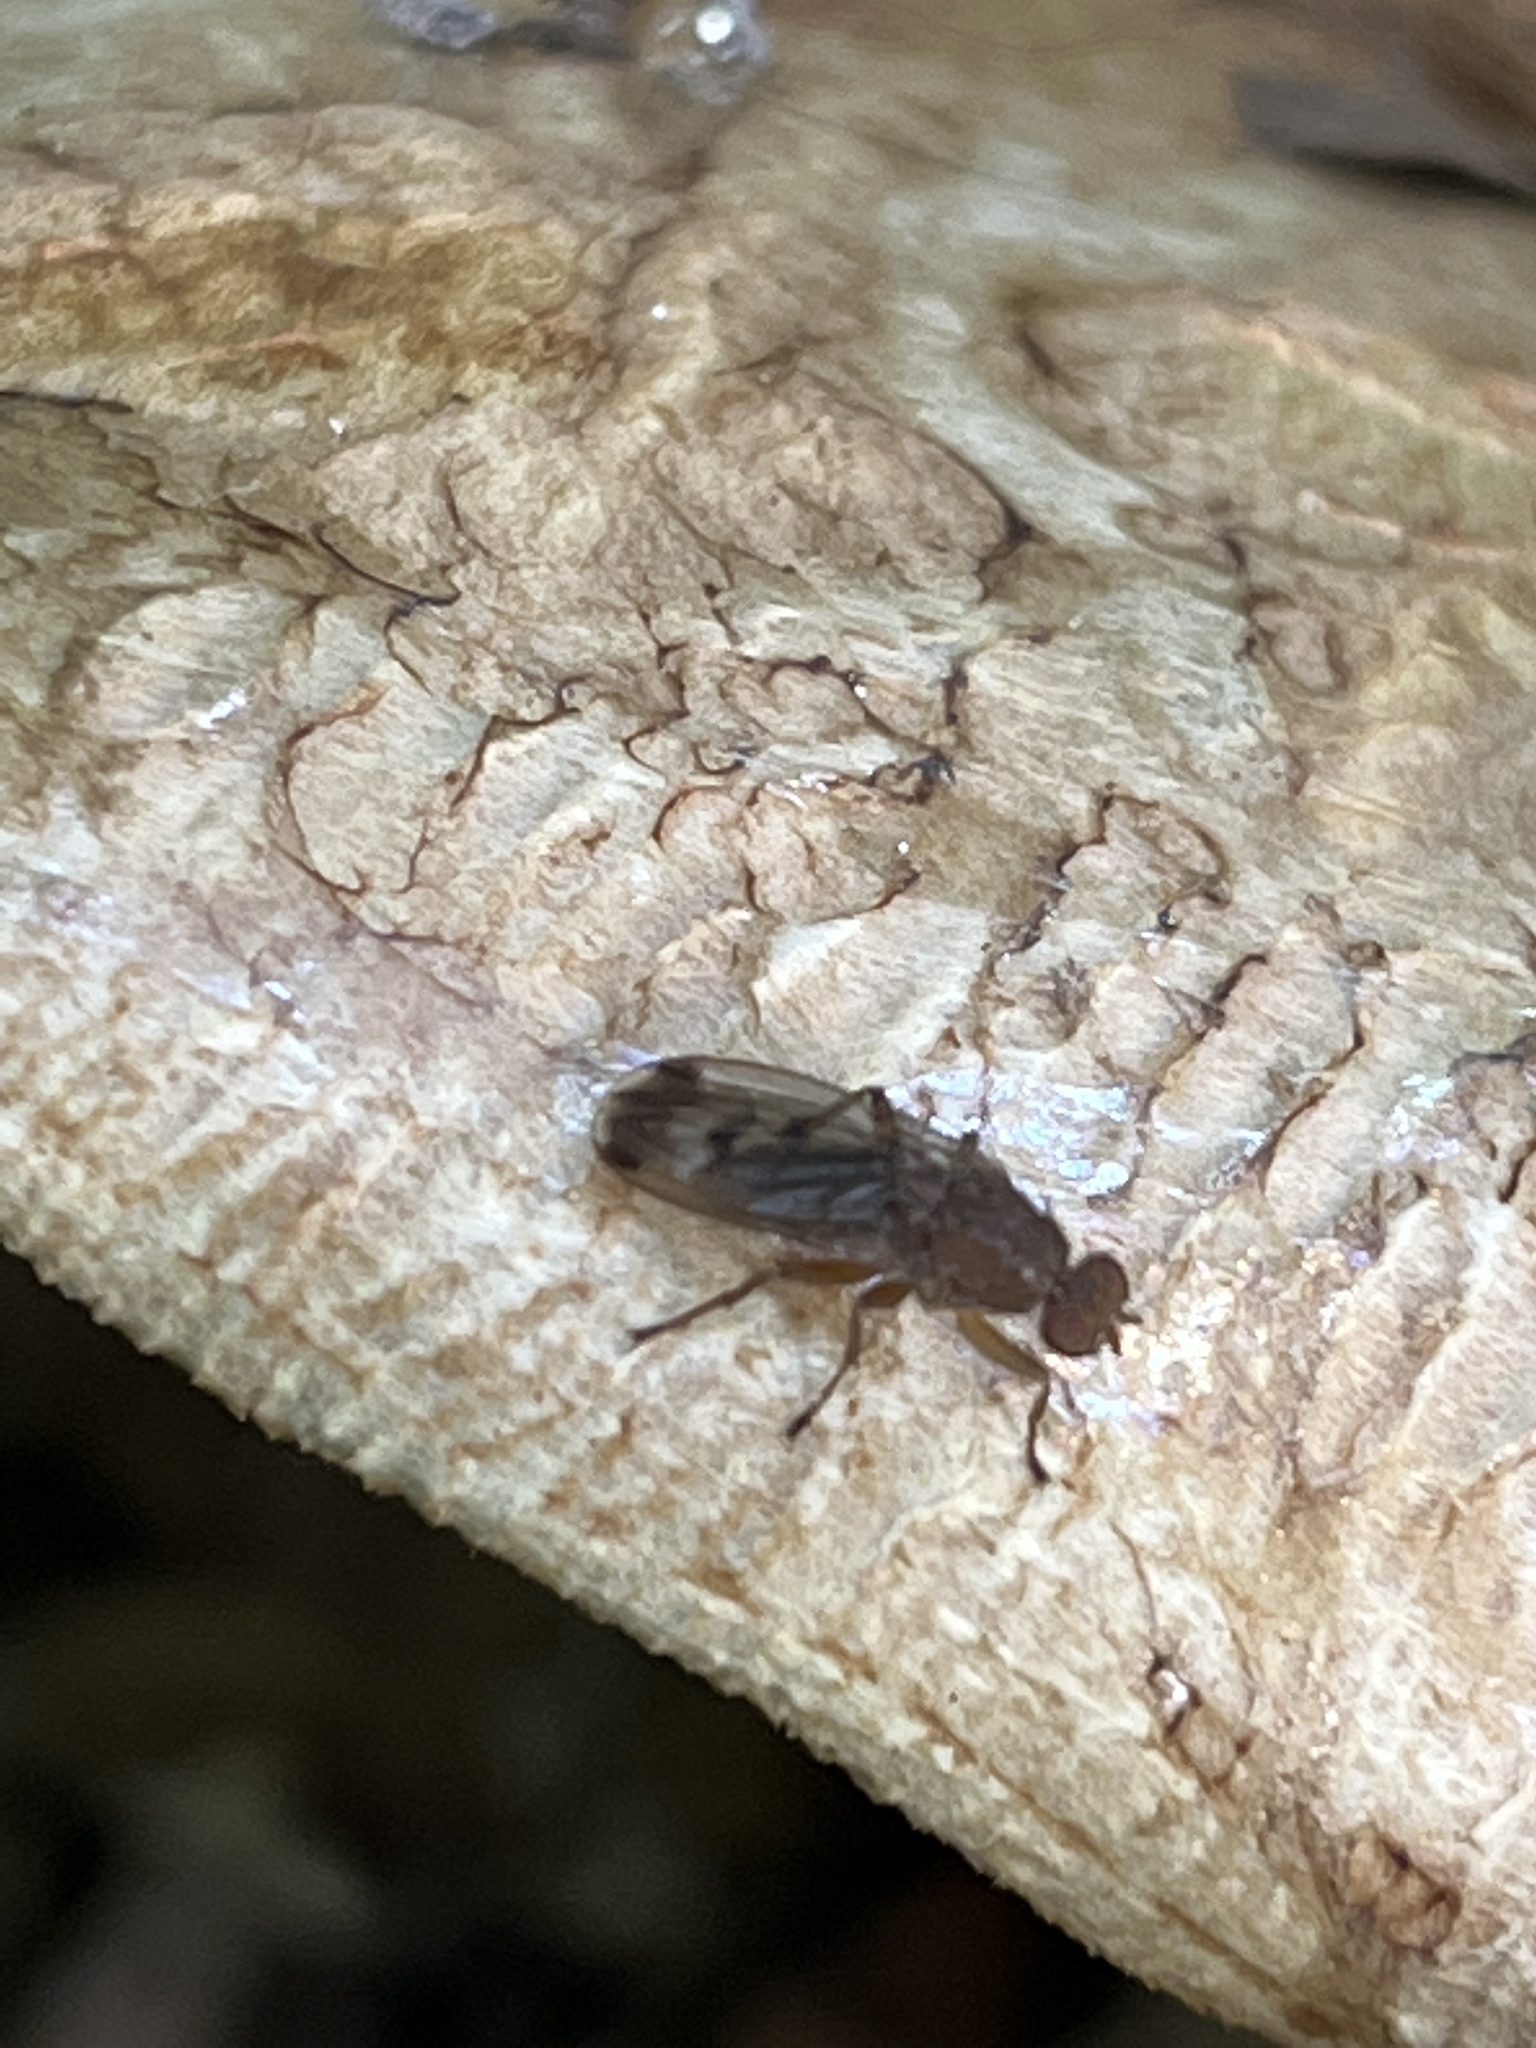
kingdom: Animalia
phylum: Arthropoda
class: Insecta
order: Diptera
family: Heleomyzidae
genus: Suillia
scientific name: Suillia variegata
